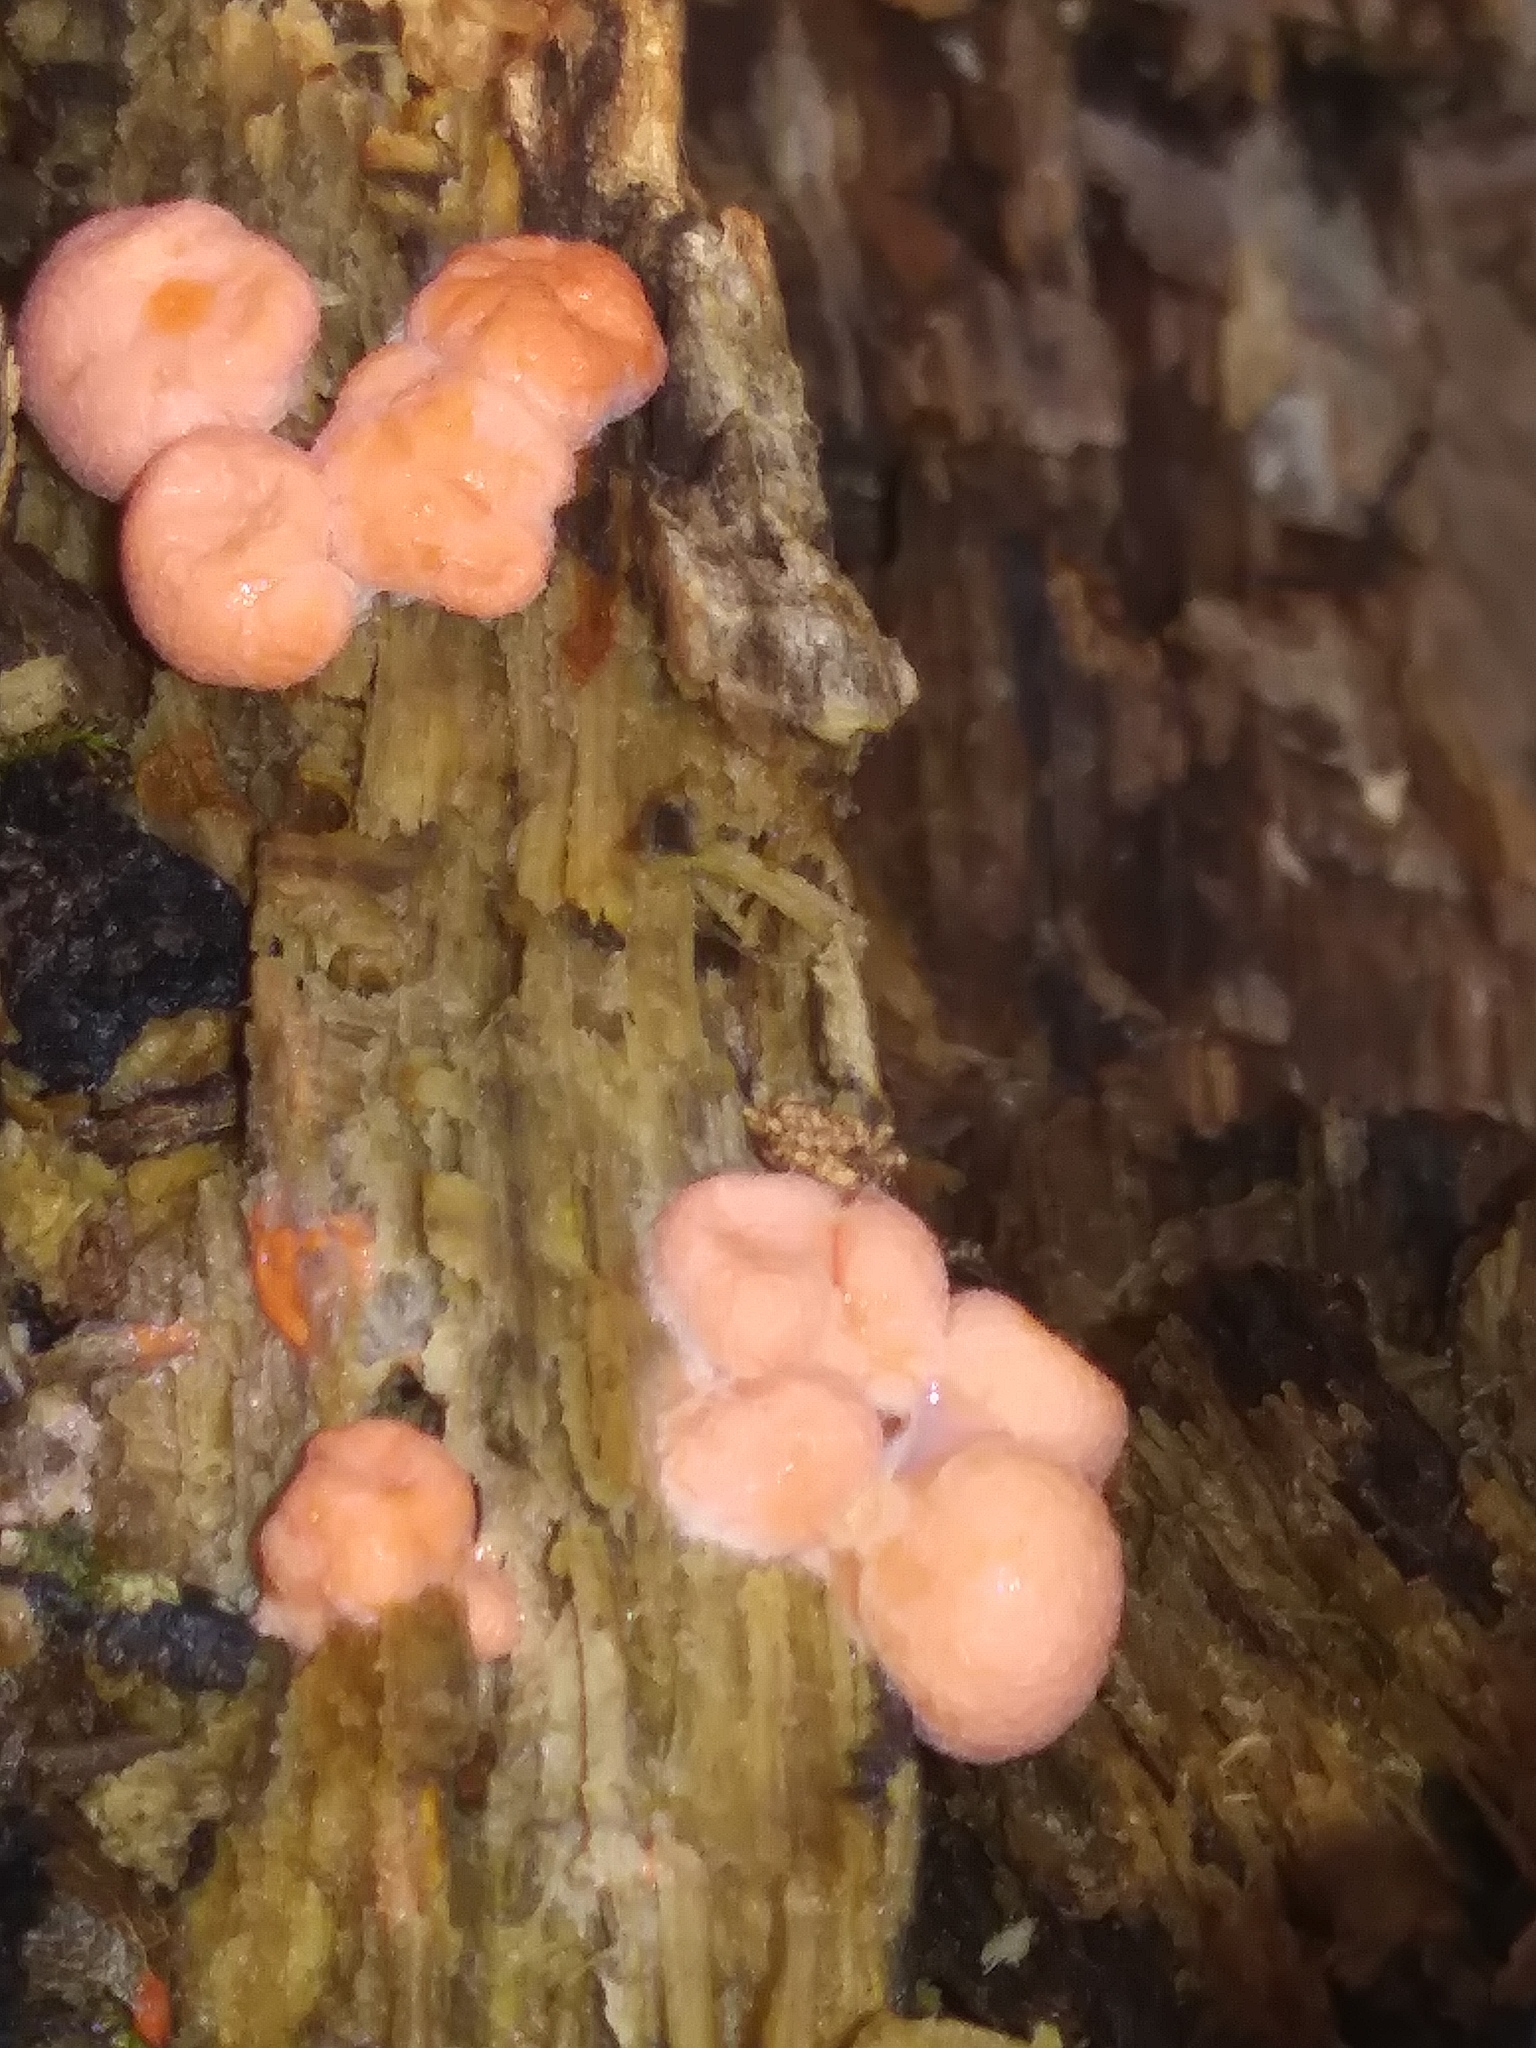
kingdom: Protozoa
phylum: Mycetozoa
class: Myxomycetes
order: Cribrariales
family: Tubiferaceae
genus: Lycogala
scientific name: Lycogala epidendrum
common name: Wolf's milk
